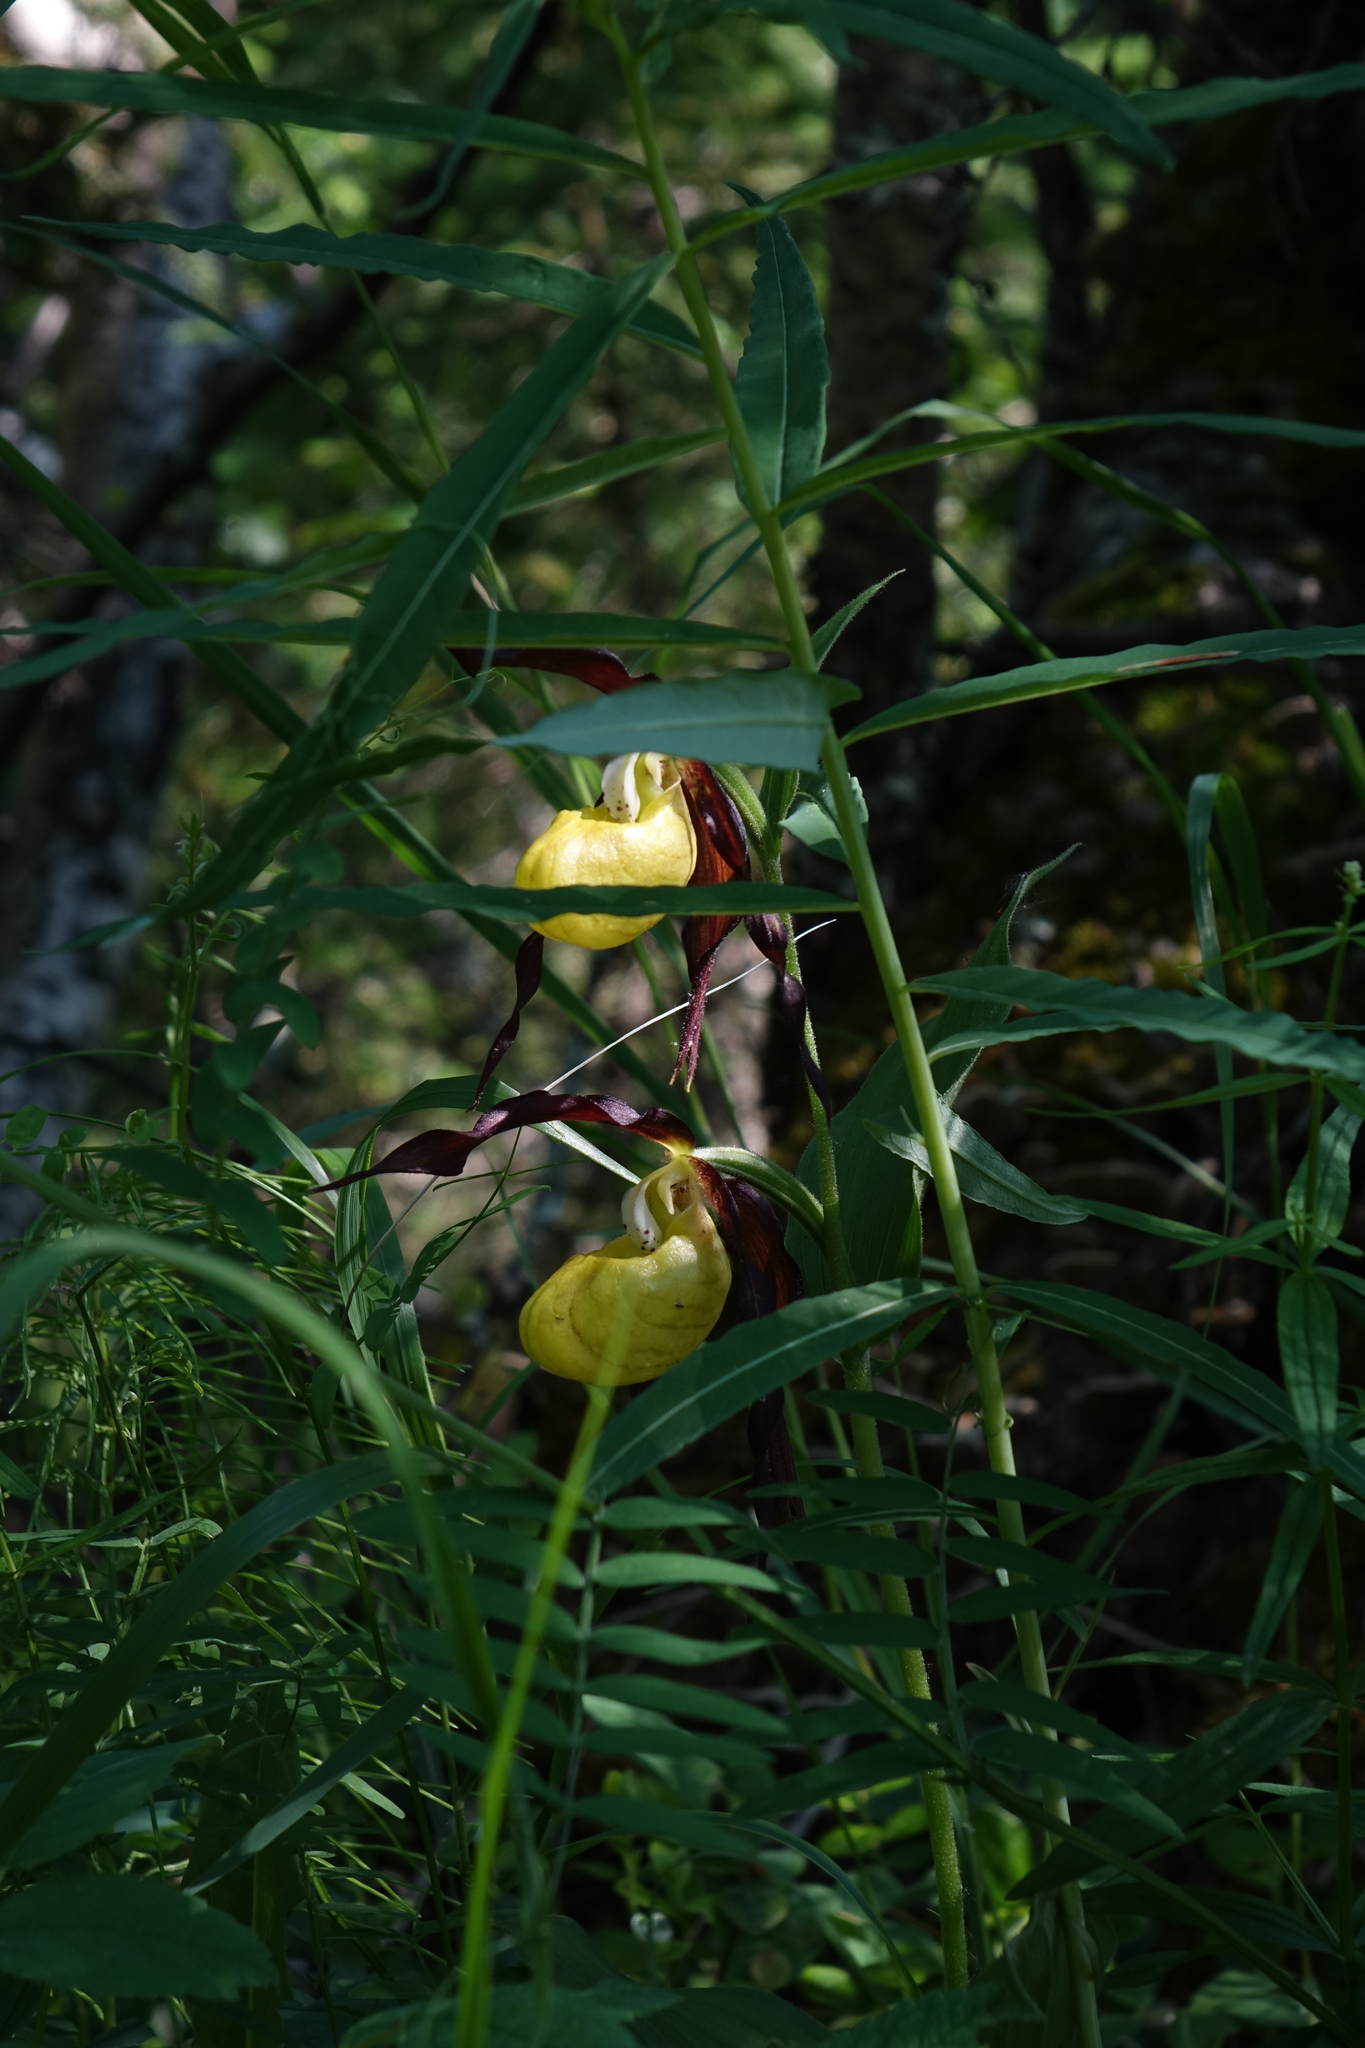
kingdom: Plantae
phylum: Tracheophyta
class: Liliopsida
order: Asparagales
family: Orchidaceae
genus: Cypripedium
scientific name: Cypripedium calceolus
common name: Lady's-slipper
